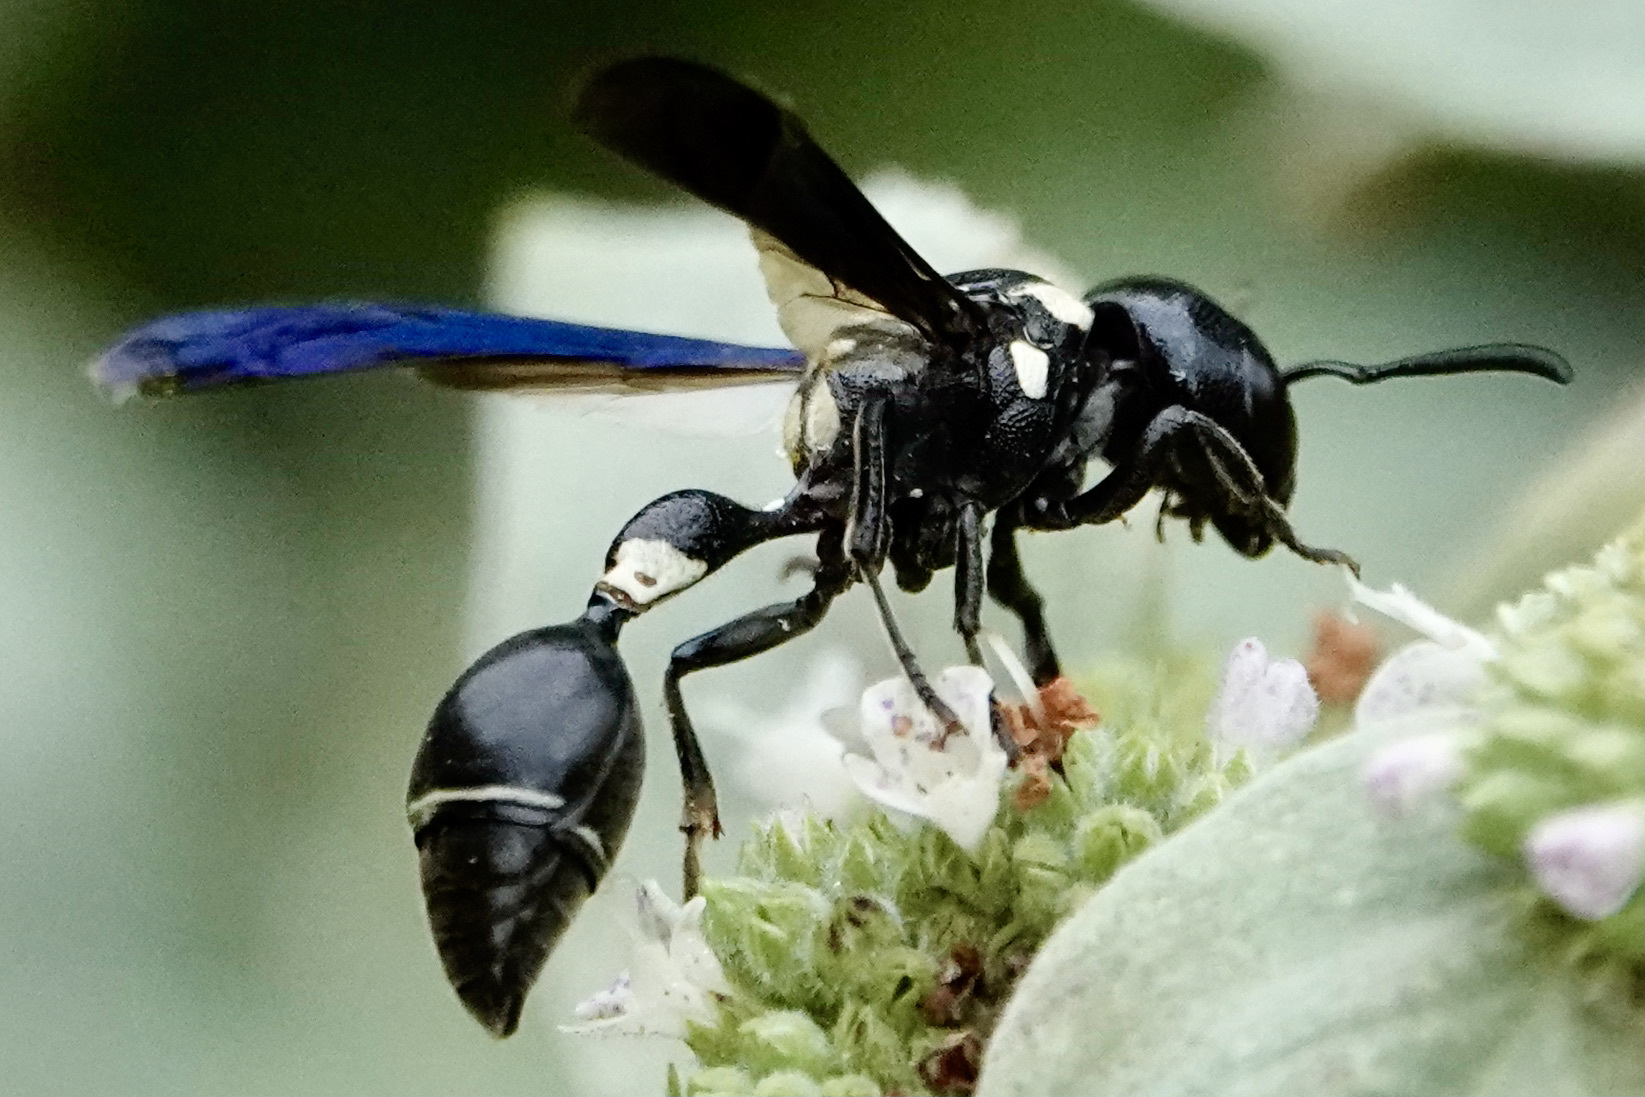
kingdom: Animalia
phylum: Arthropoda
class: Insecta
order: Hymenoptera
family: Eumenidae
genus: Zethus
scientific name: Zethus spinipes
